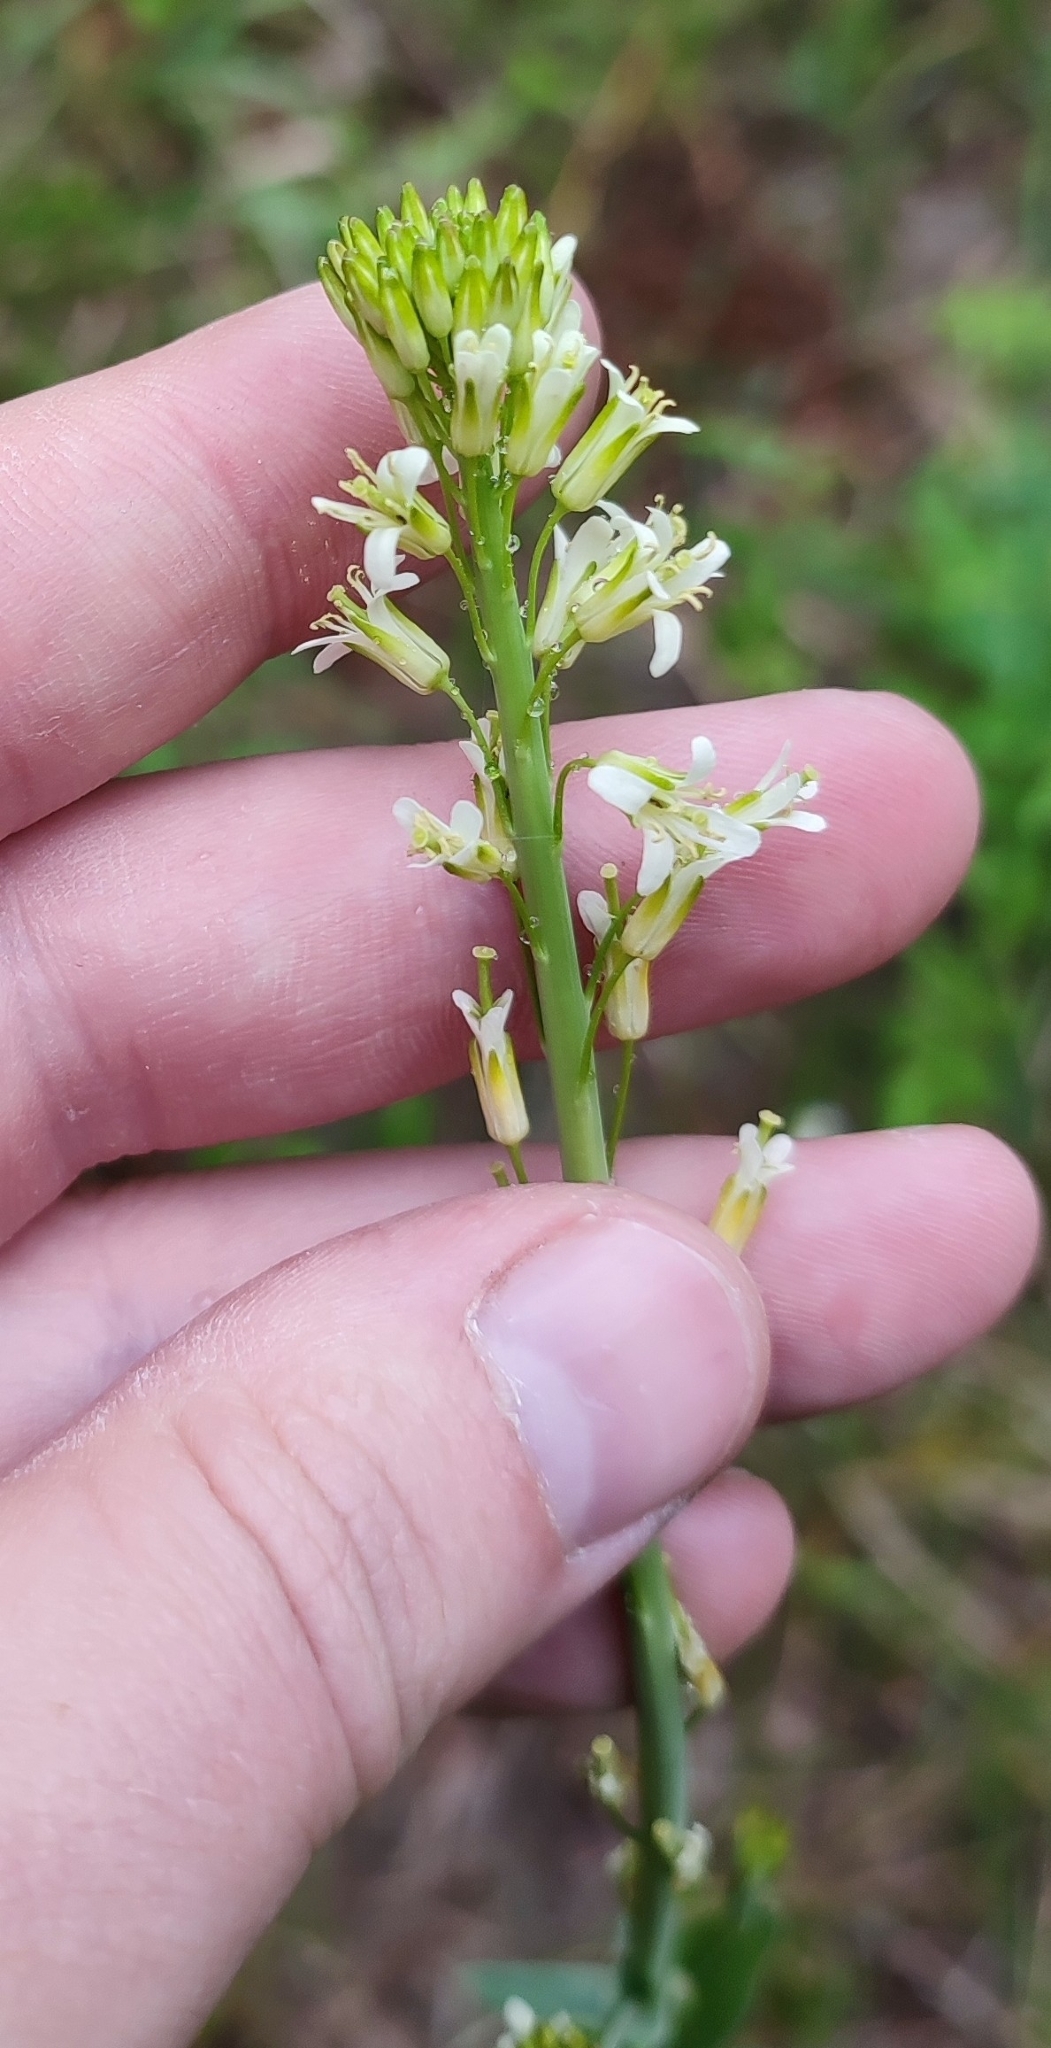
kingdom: Plantae
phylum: Tracheophyta
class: Magnoliopsida
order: Brassicales
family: Brassicaceae
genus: Turritis
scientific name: Turritis glabra
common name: Tower rockcress
